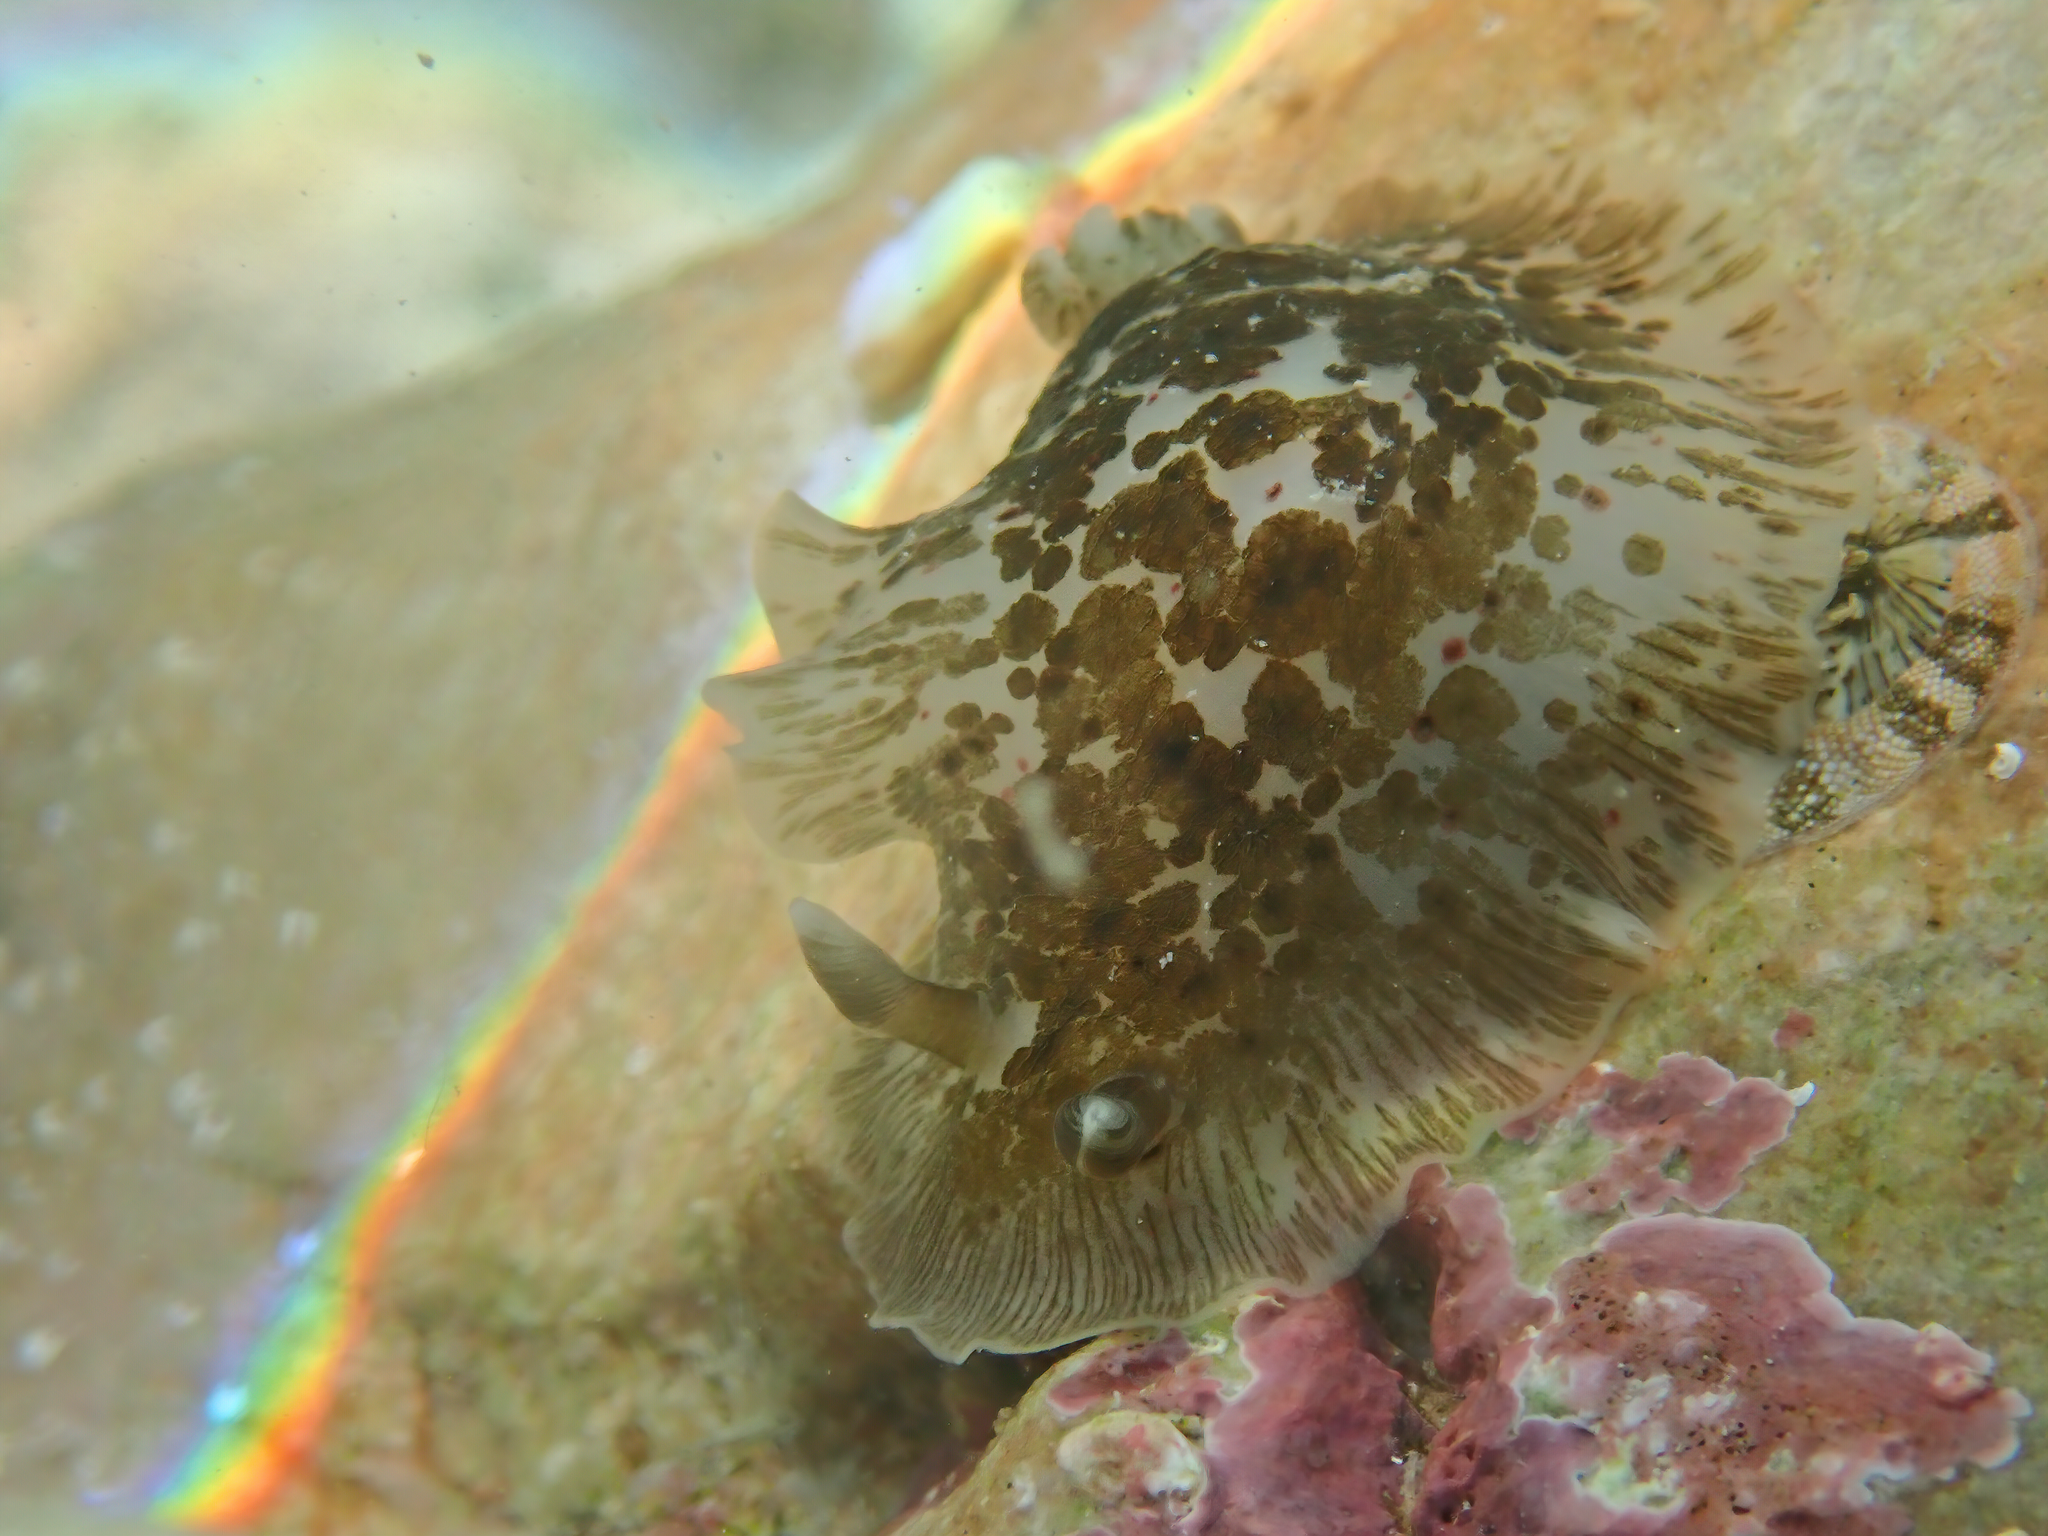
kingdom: Animalia
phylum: Mollusca
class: Gastropoda
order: Nudibranchia
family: Dendrodorididae
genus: Dendrodoris
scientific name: Dendrodoris grandiflora
